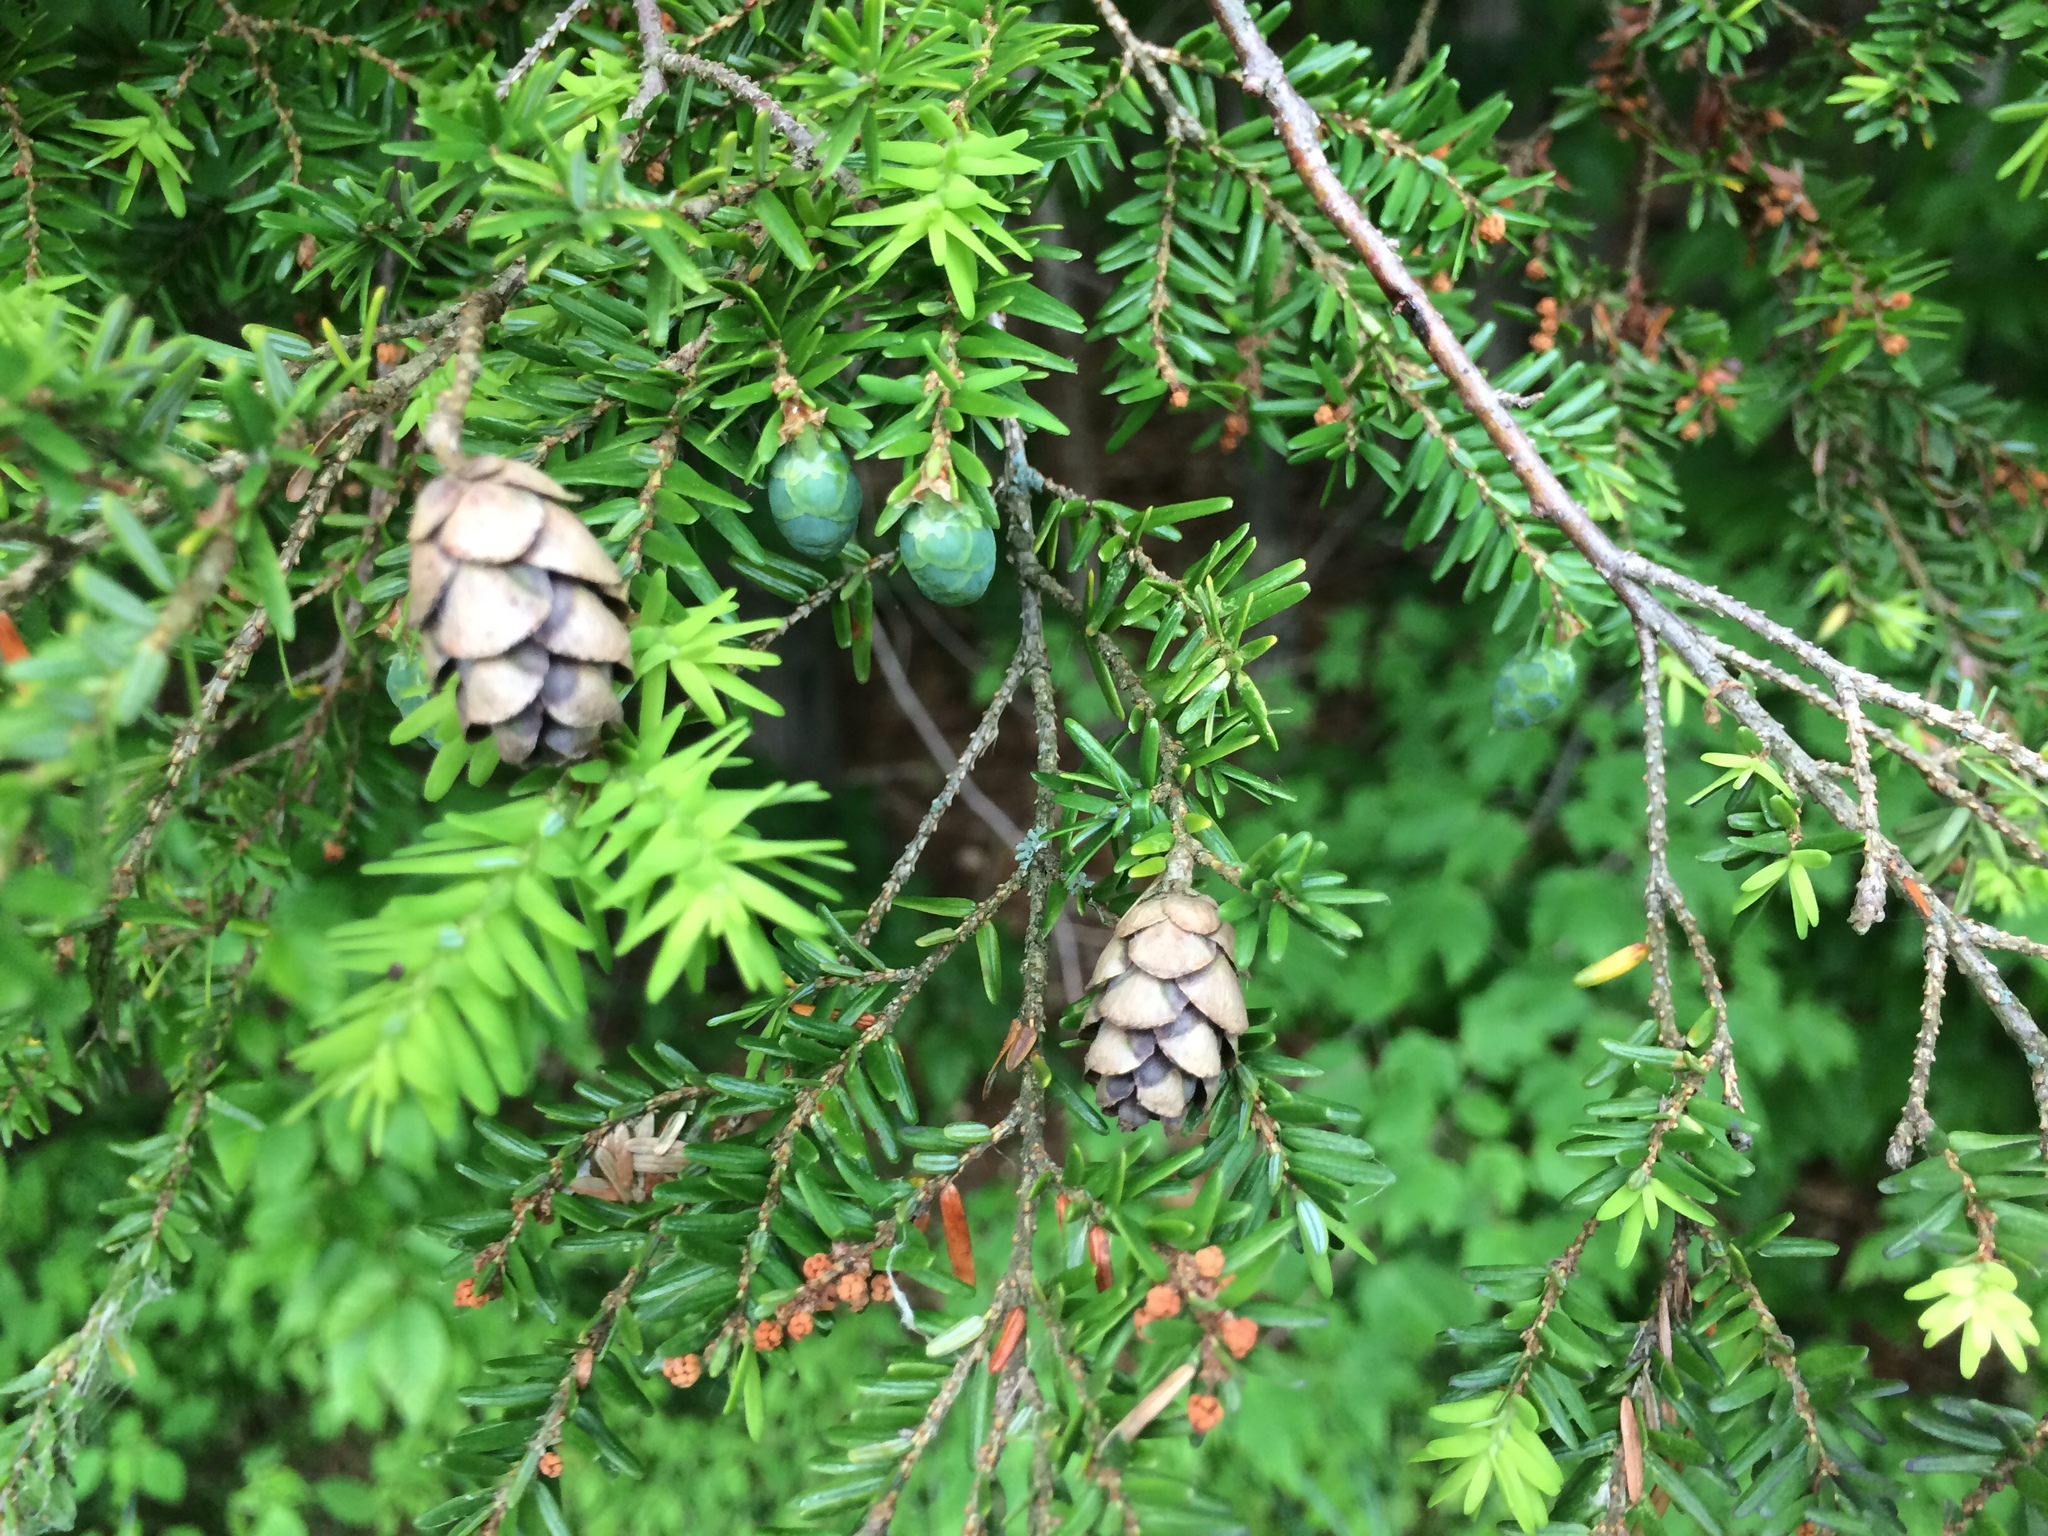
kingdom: Plantae
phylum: Tracheophyta
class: Pinopsida
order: Pinales
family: Pinaceae
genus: Tsuga
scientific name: Tsuga canadensis
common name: Eastern hemlock
